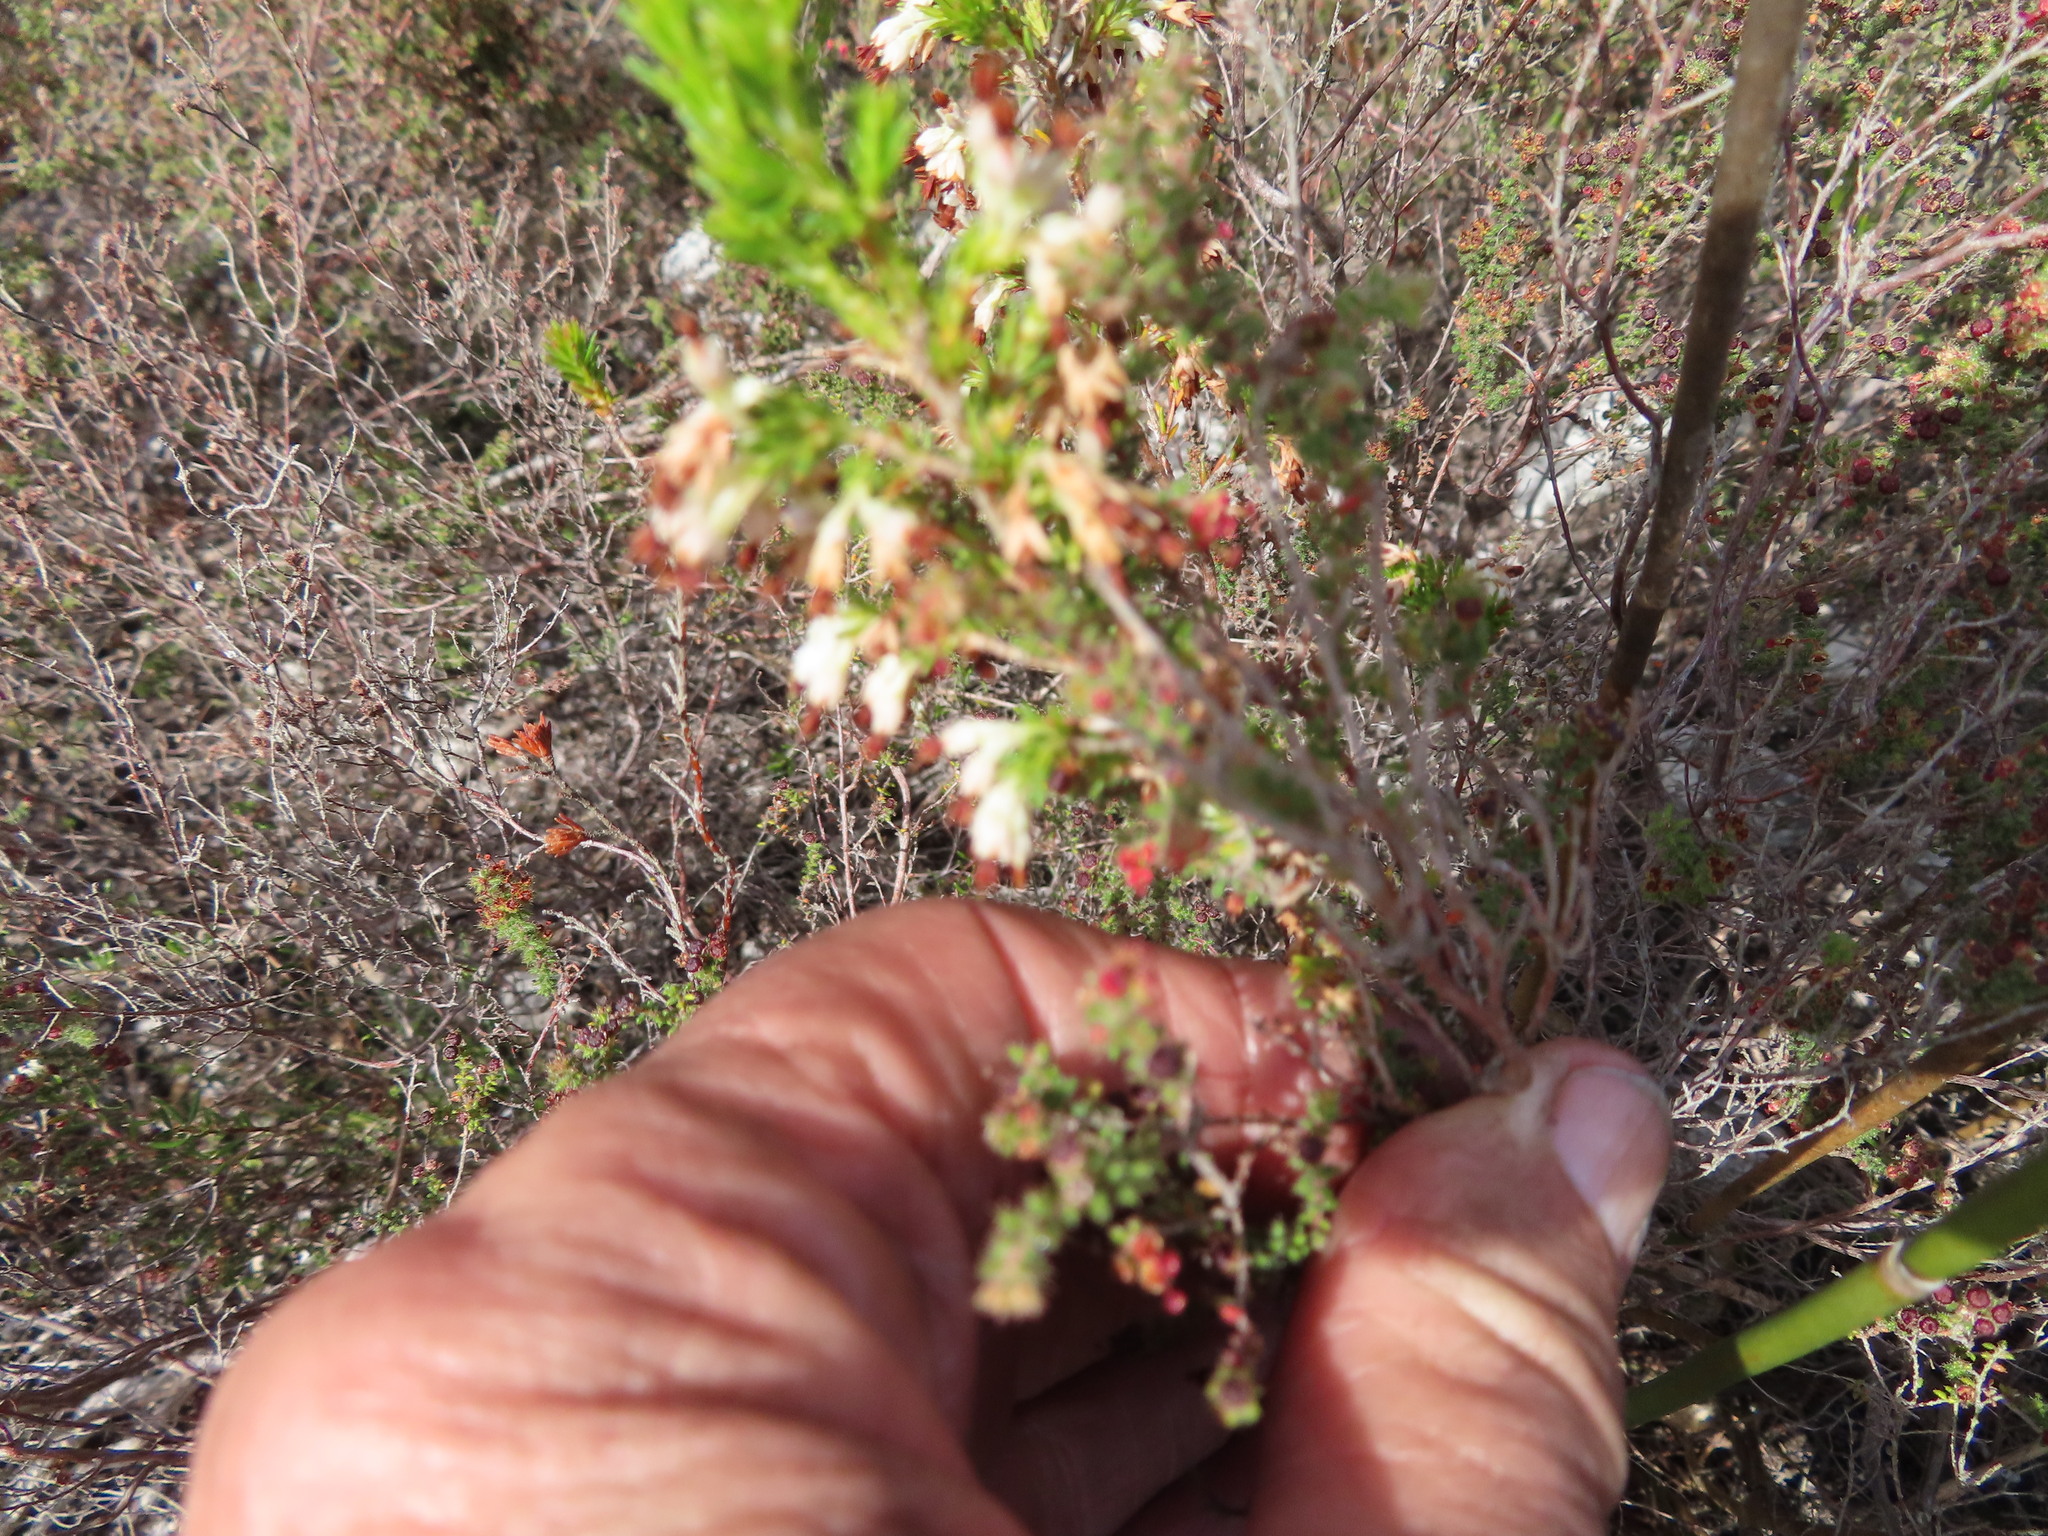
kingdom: Plantae
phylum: Tracheophyta
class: Magnoliopsida
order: Ericales
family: Ericaceae
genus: Erica
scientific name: Erica imbricata
